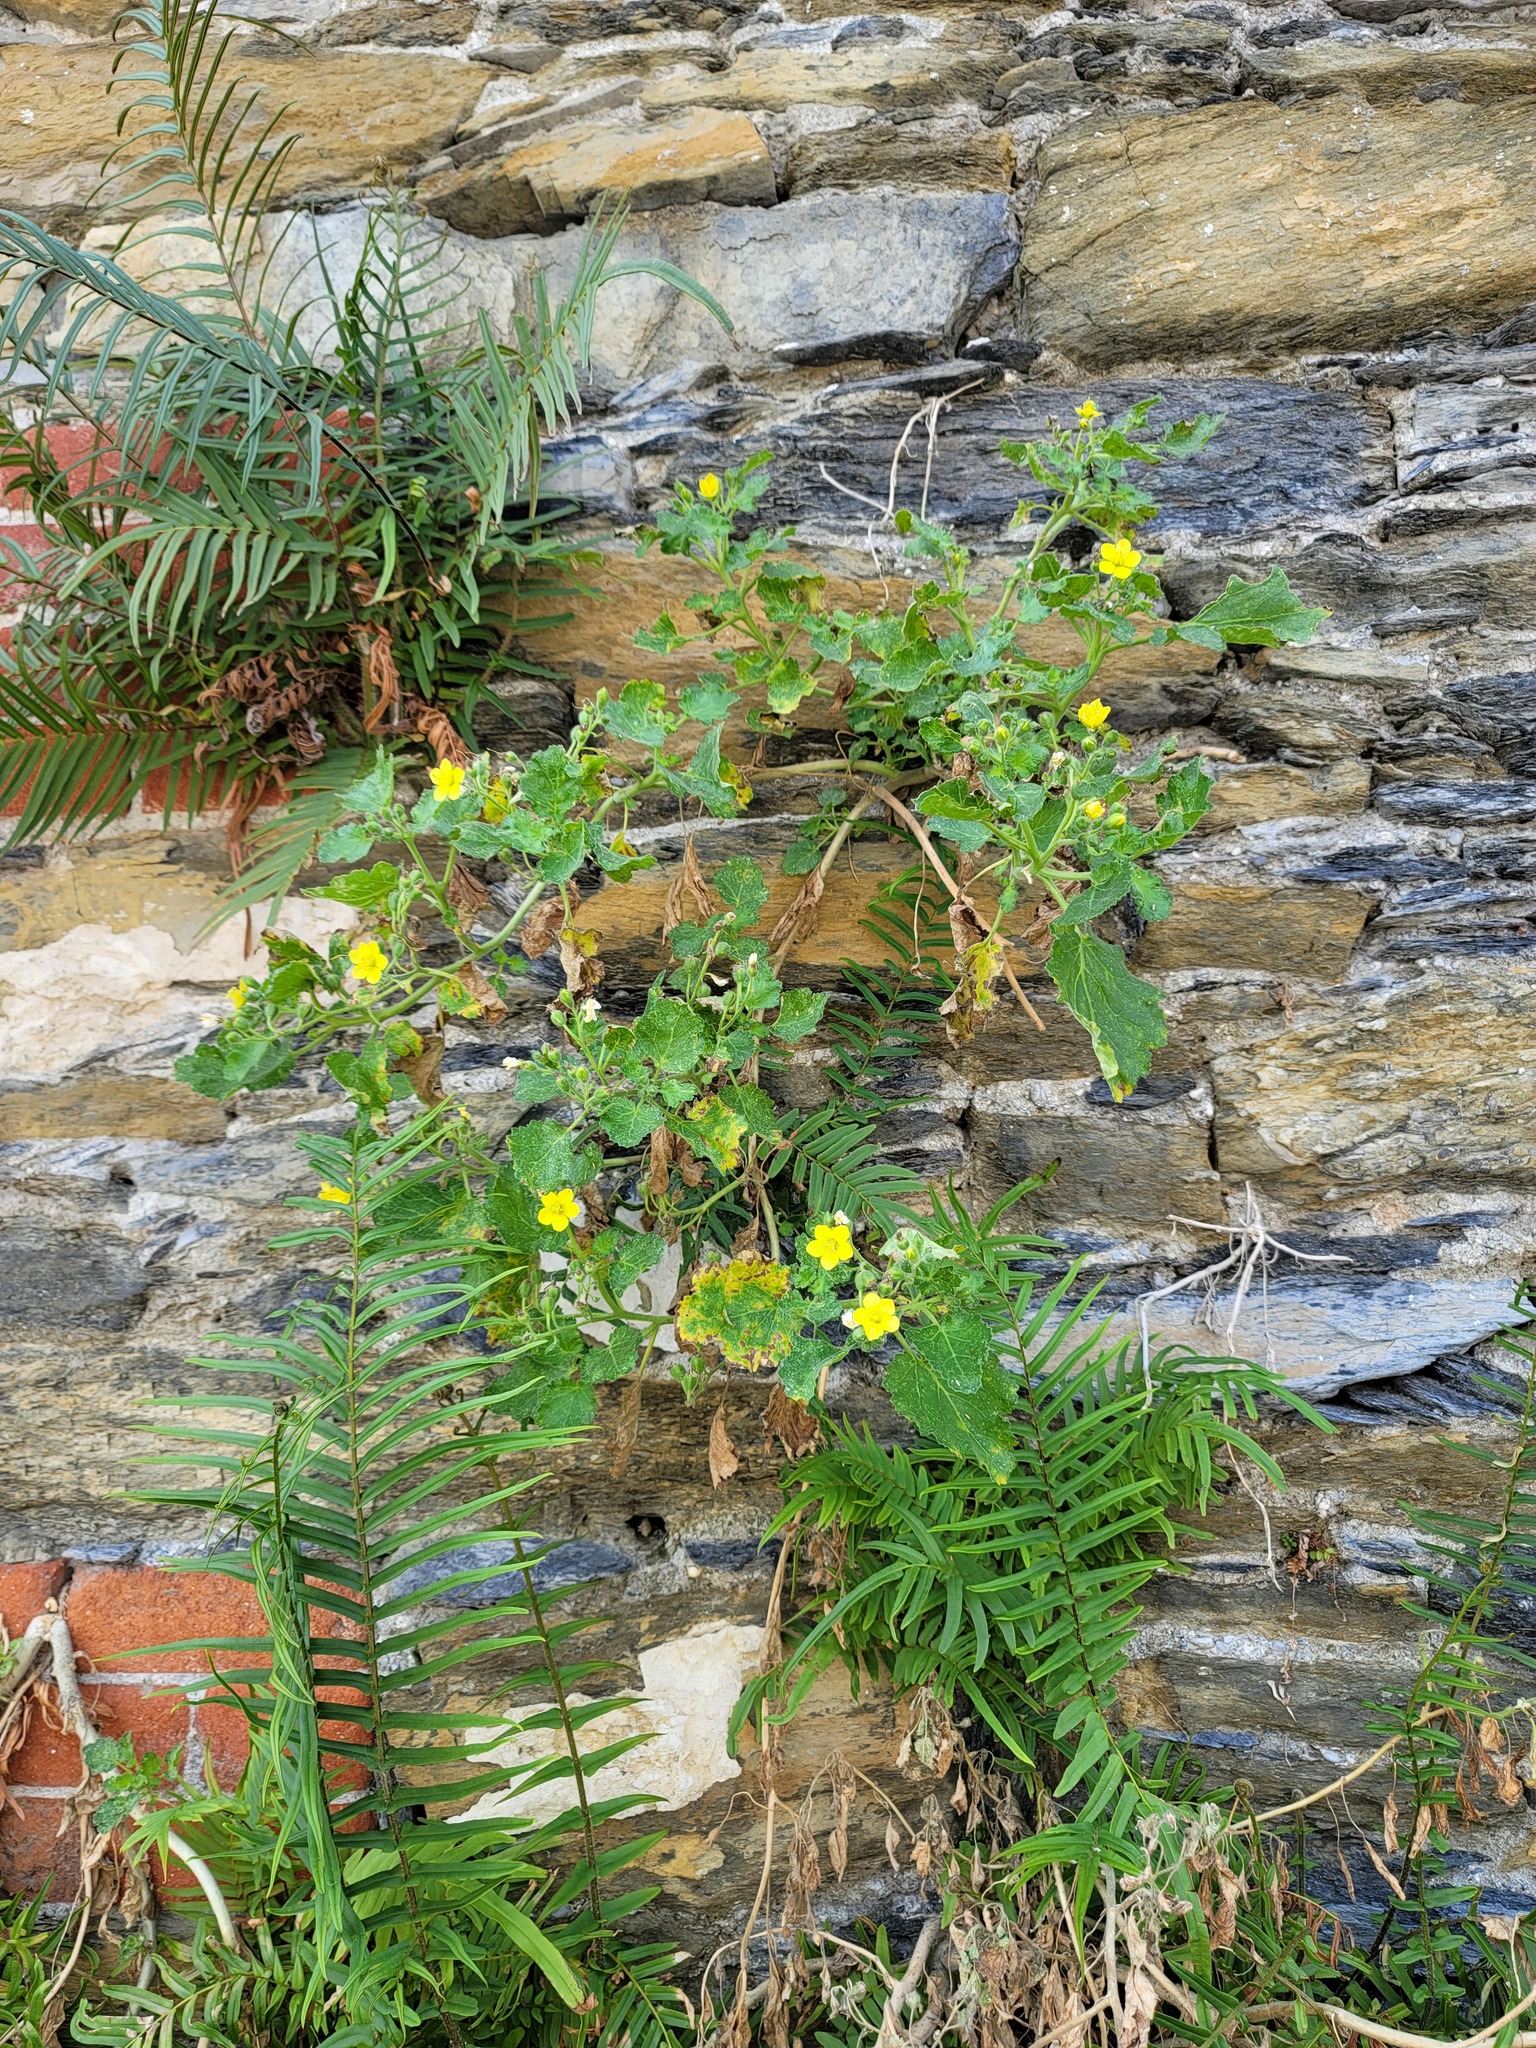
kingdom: Plantae
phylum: Tracheophyta
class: Magnoliopsida
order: Cornales
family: Loasaceae
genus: Eucnide
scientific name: Eucnide lobata
